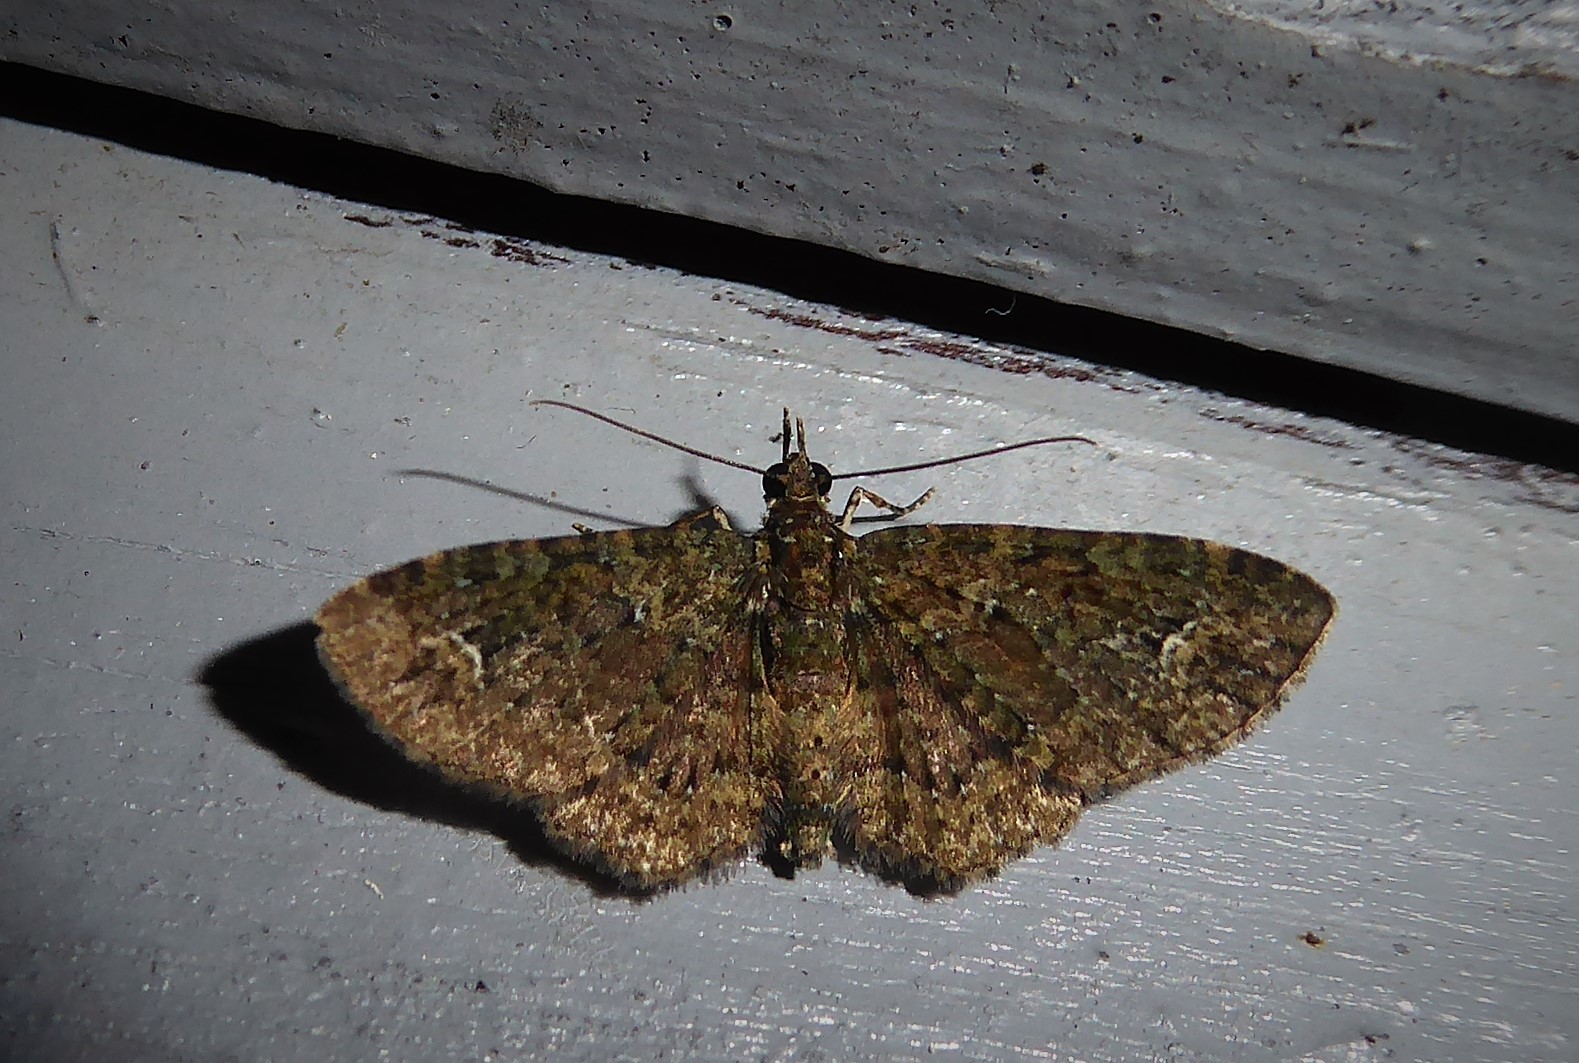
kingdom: Animalia
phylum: Arthropoda
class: Insecta
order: Lepidoptera
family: Geometridae
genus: Pasiphilodes
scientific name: Pasiphilodes testulata
